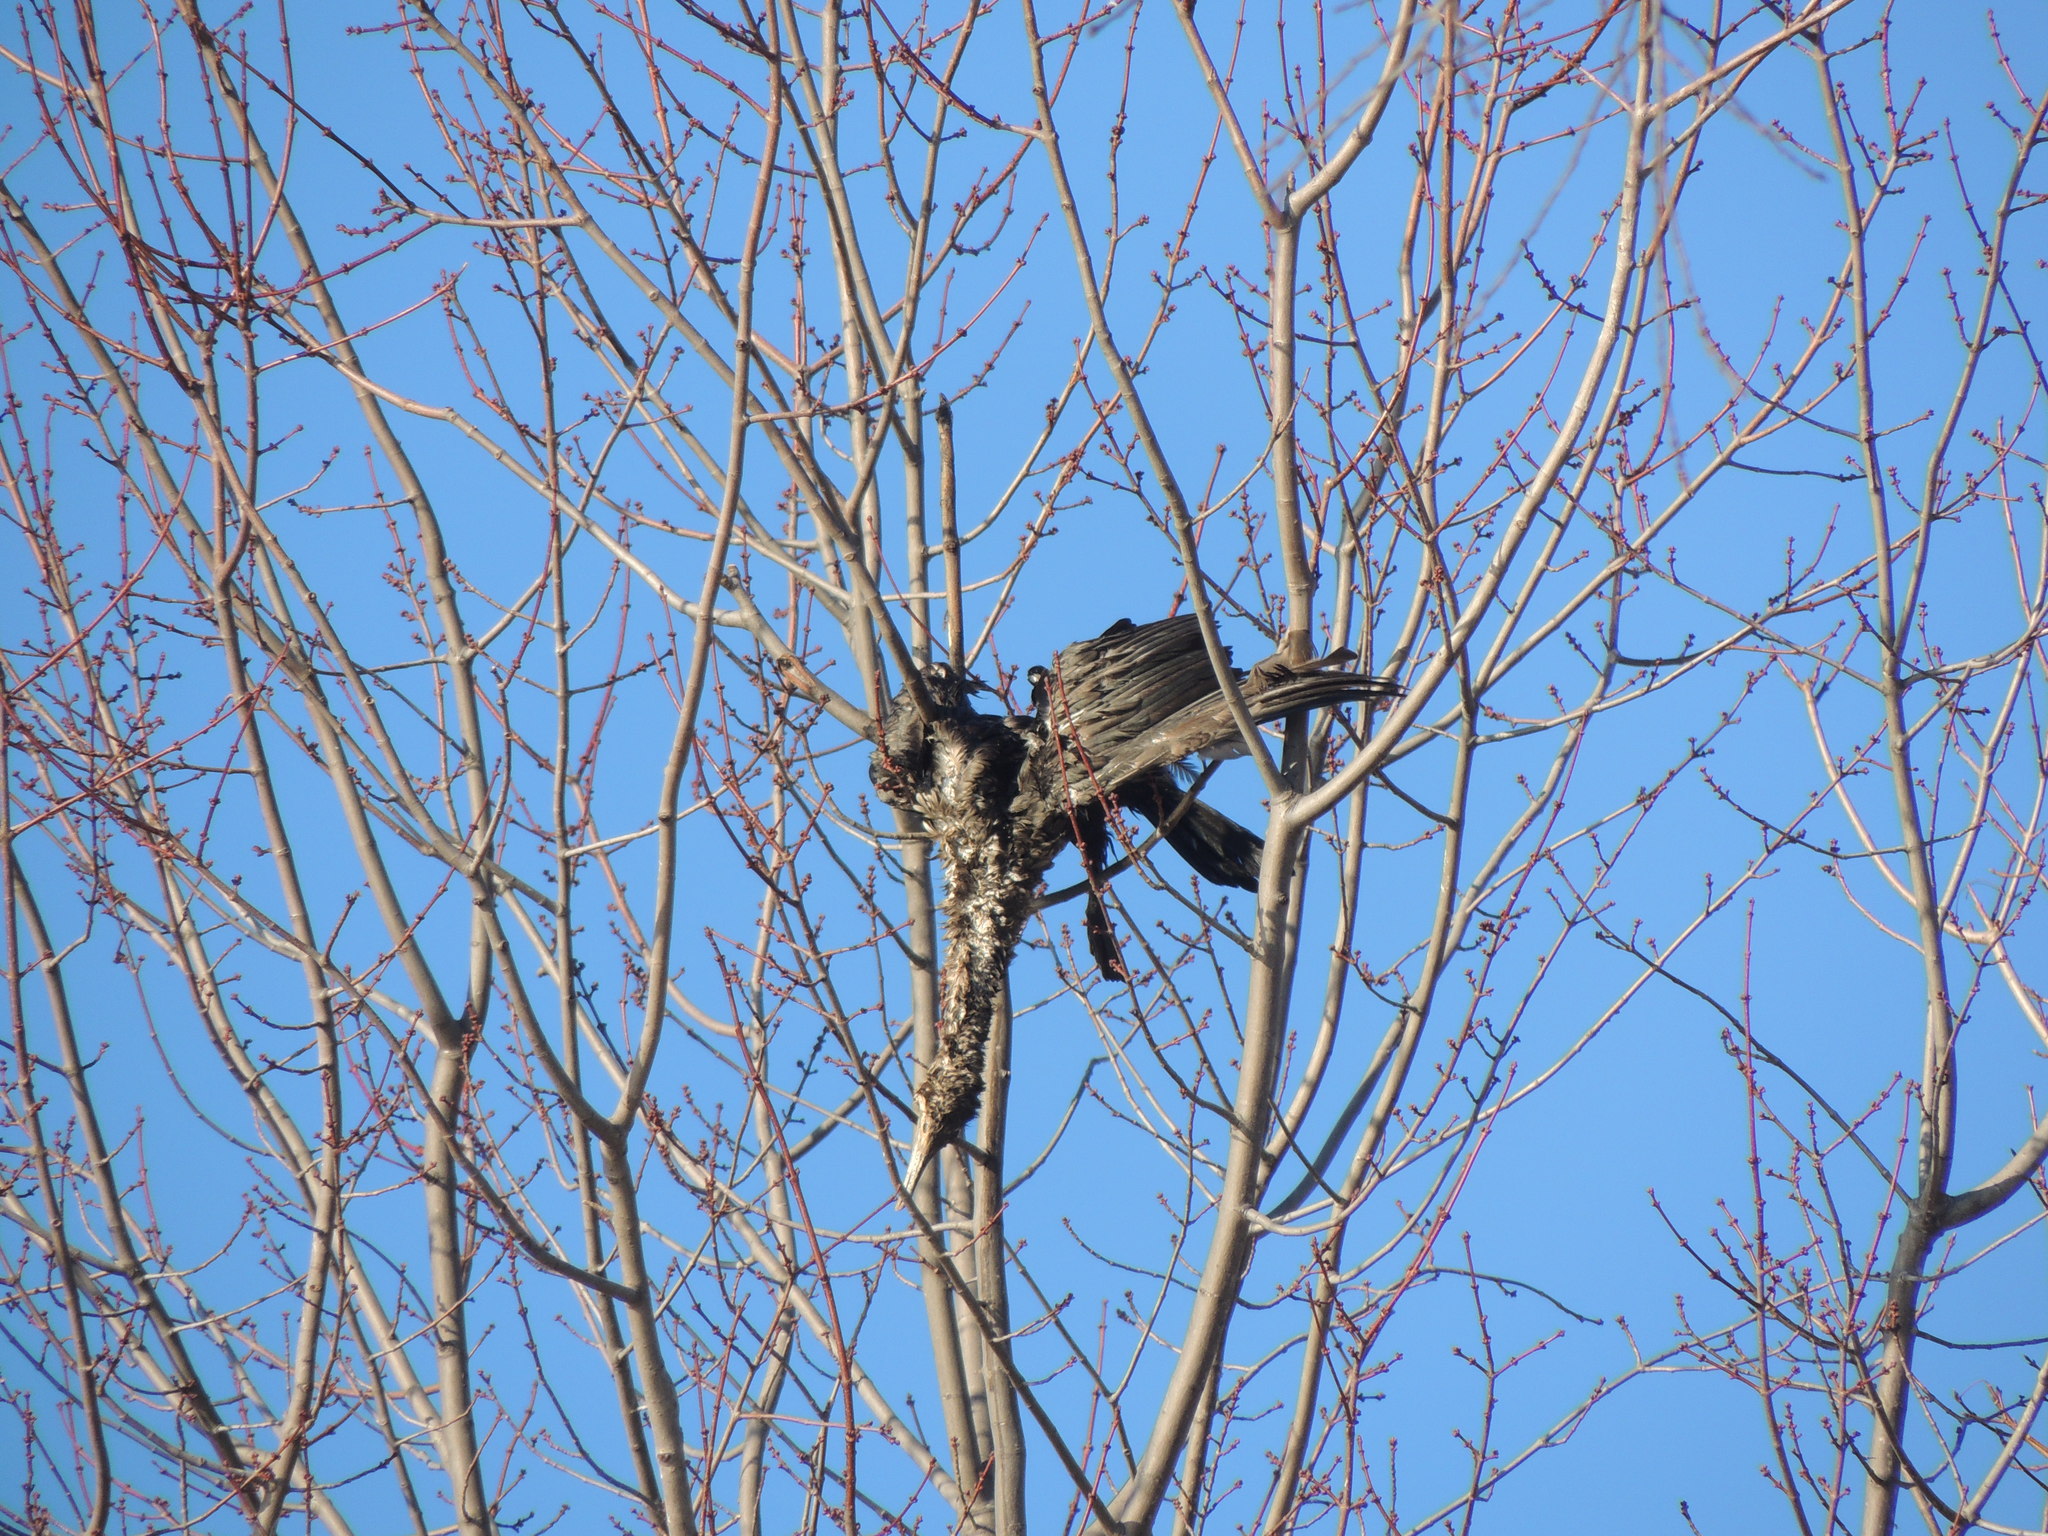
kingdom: Animalia
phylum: Chordata
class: Aves
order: Suliformes
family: Phalacrocoracidae
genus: Phalacrocorax
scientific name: Phalacrocorax auritus
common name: Double-crested cormorant
